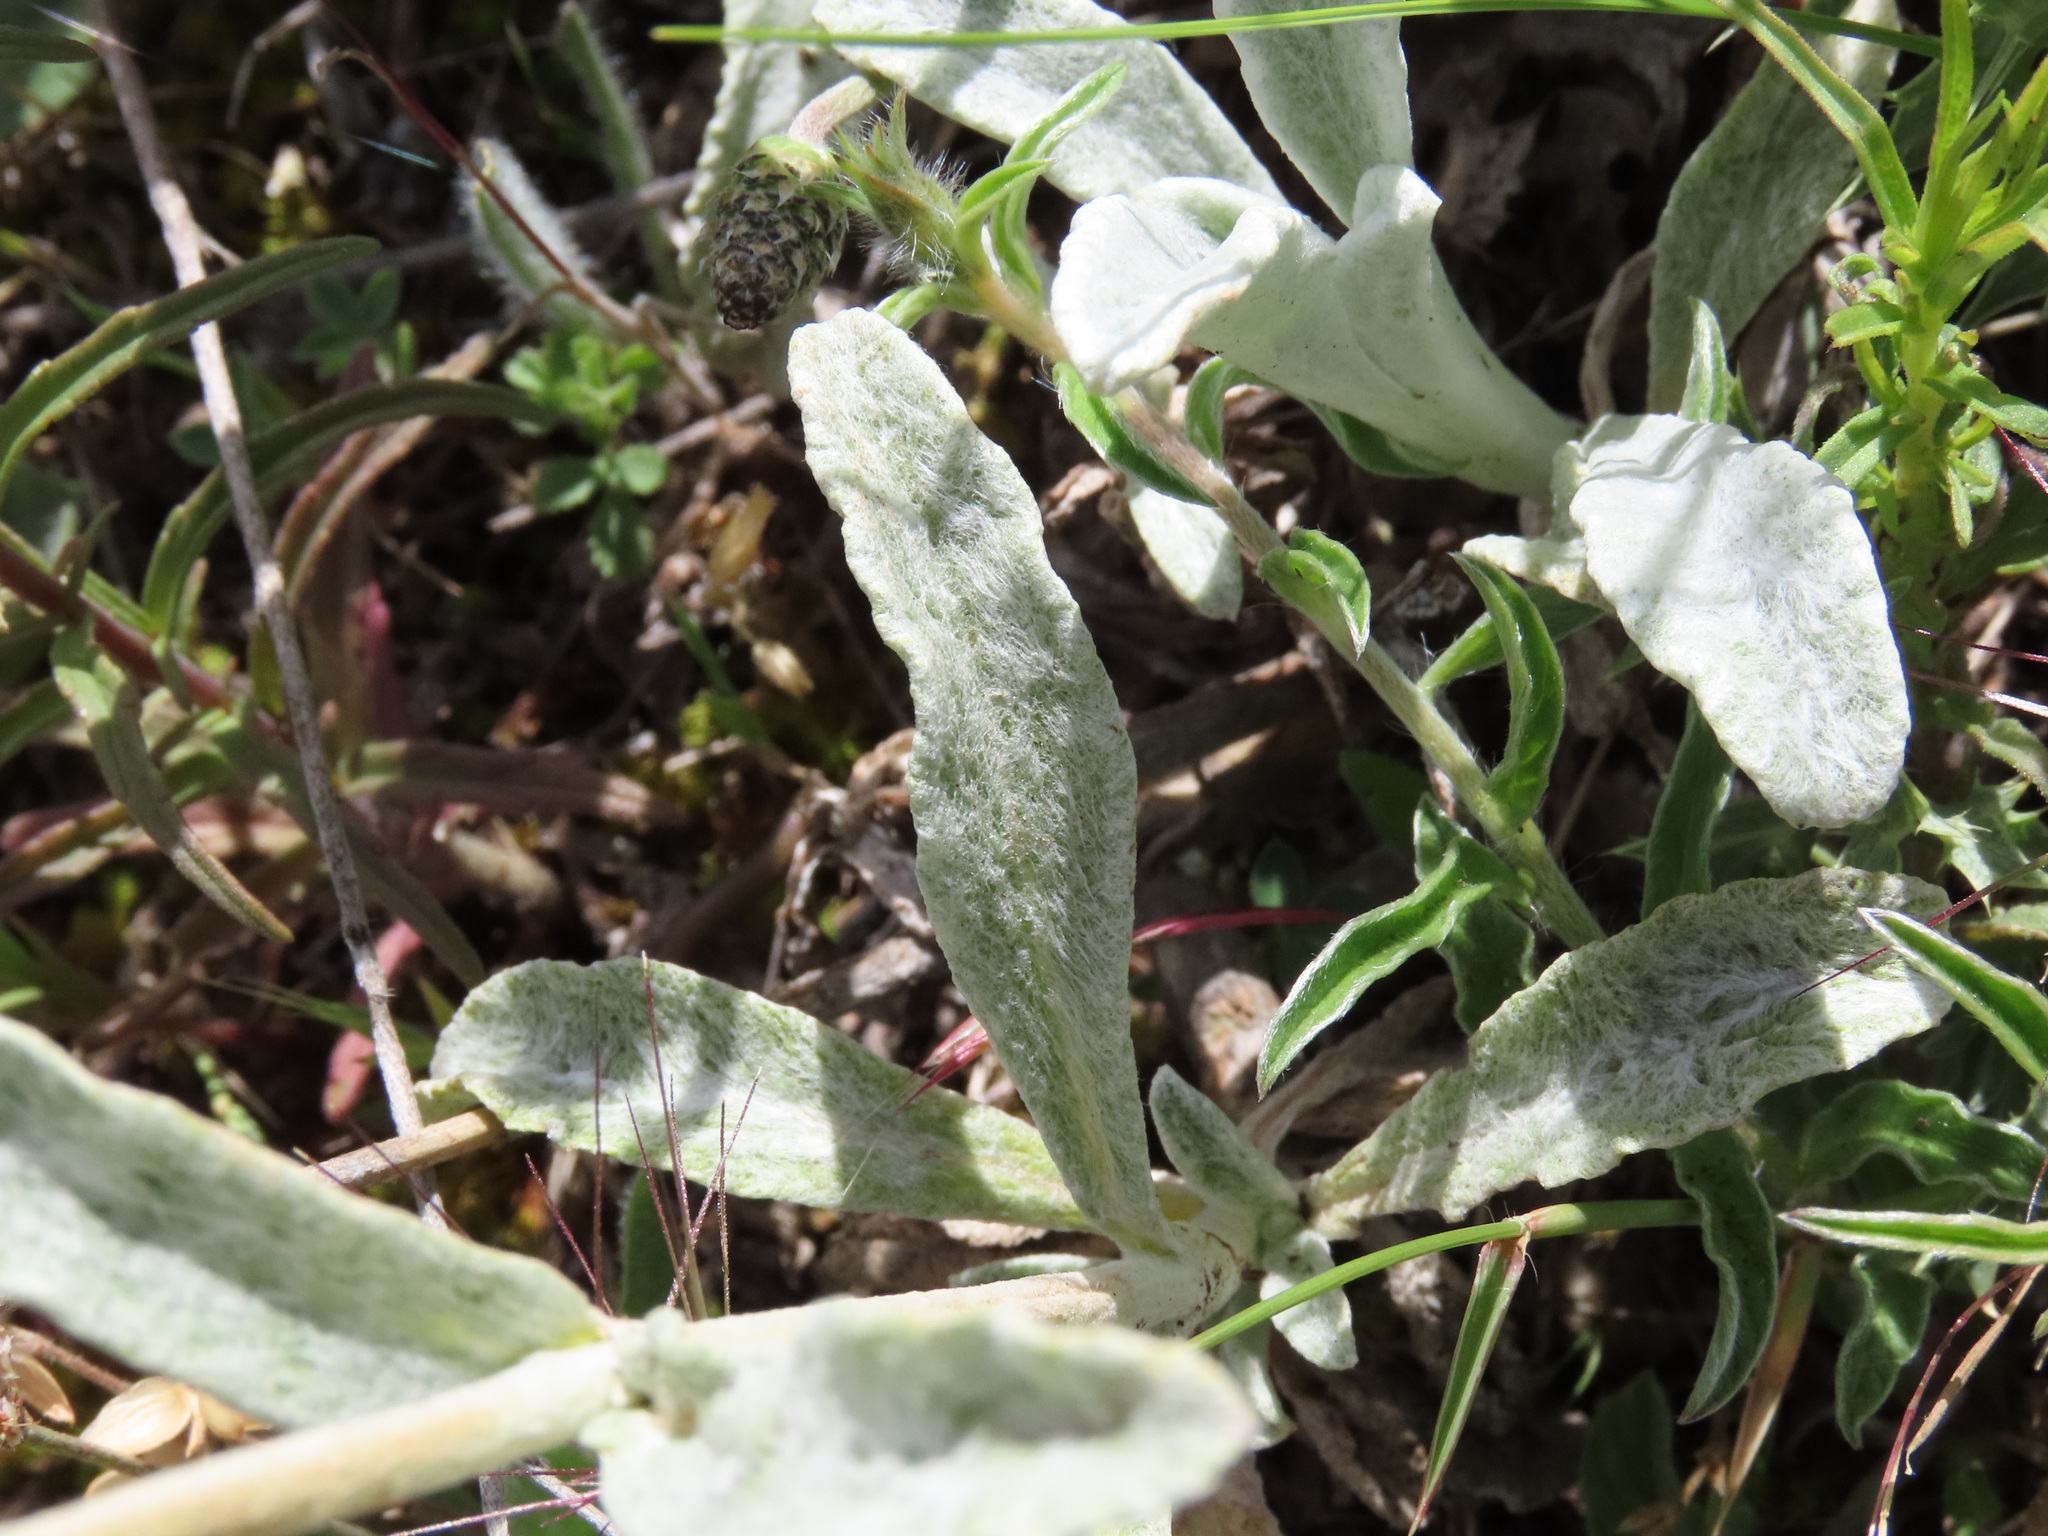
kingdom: Plantae
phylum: Tracheophyta
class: Magnoliopsida
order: Lamiales
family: Lamiaceae
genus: Sideritis
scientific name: Sideritis italica
